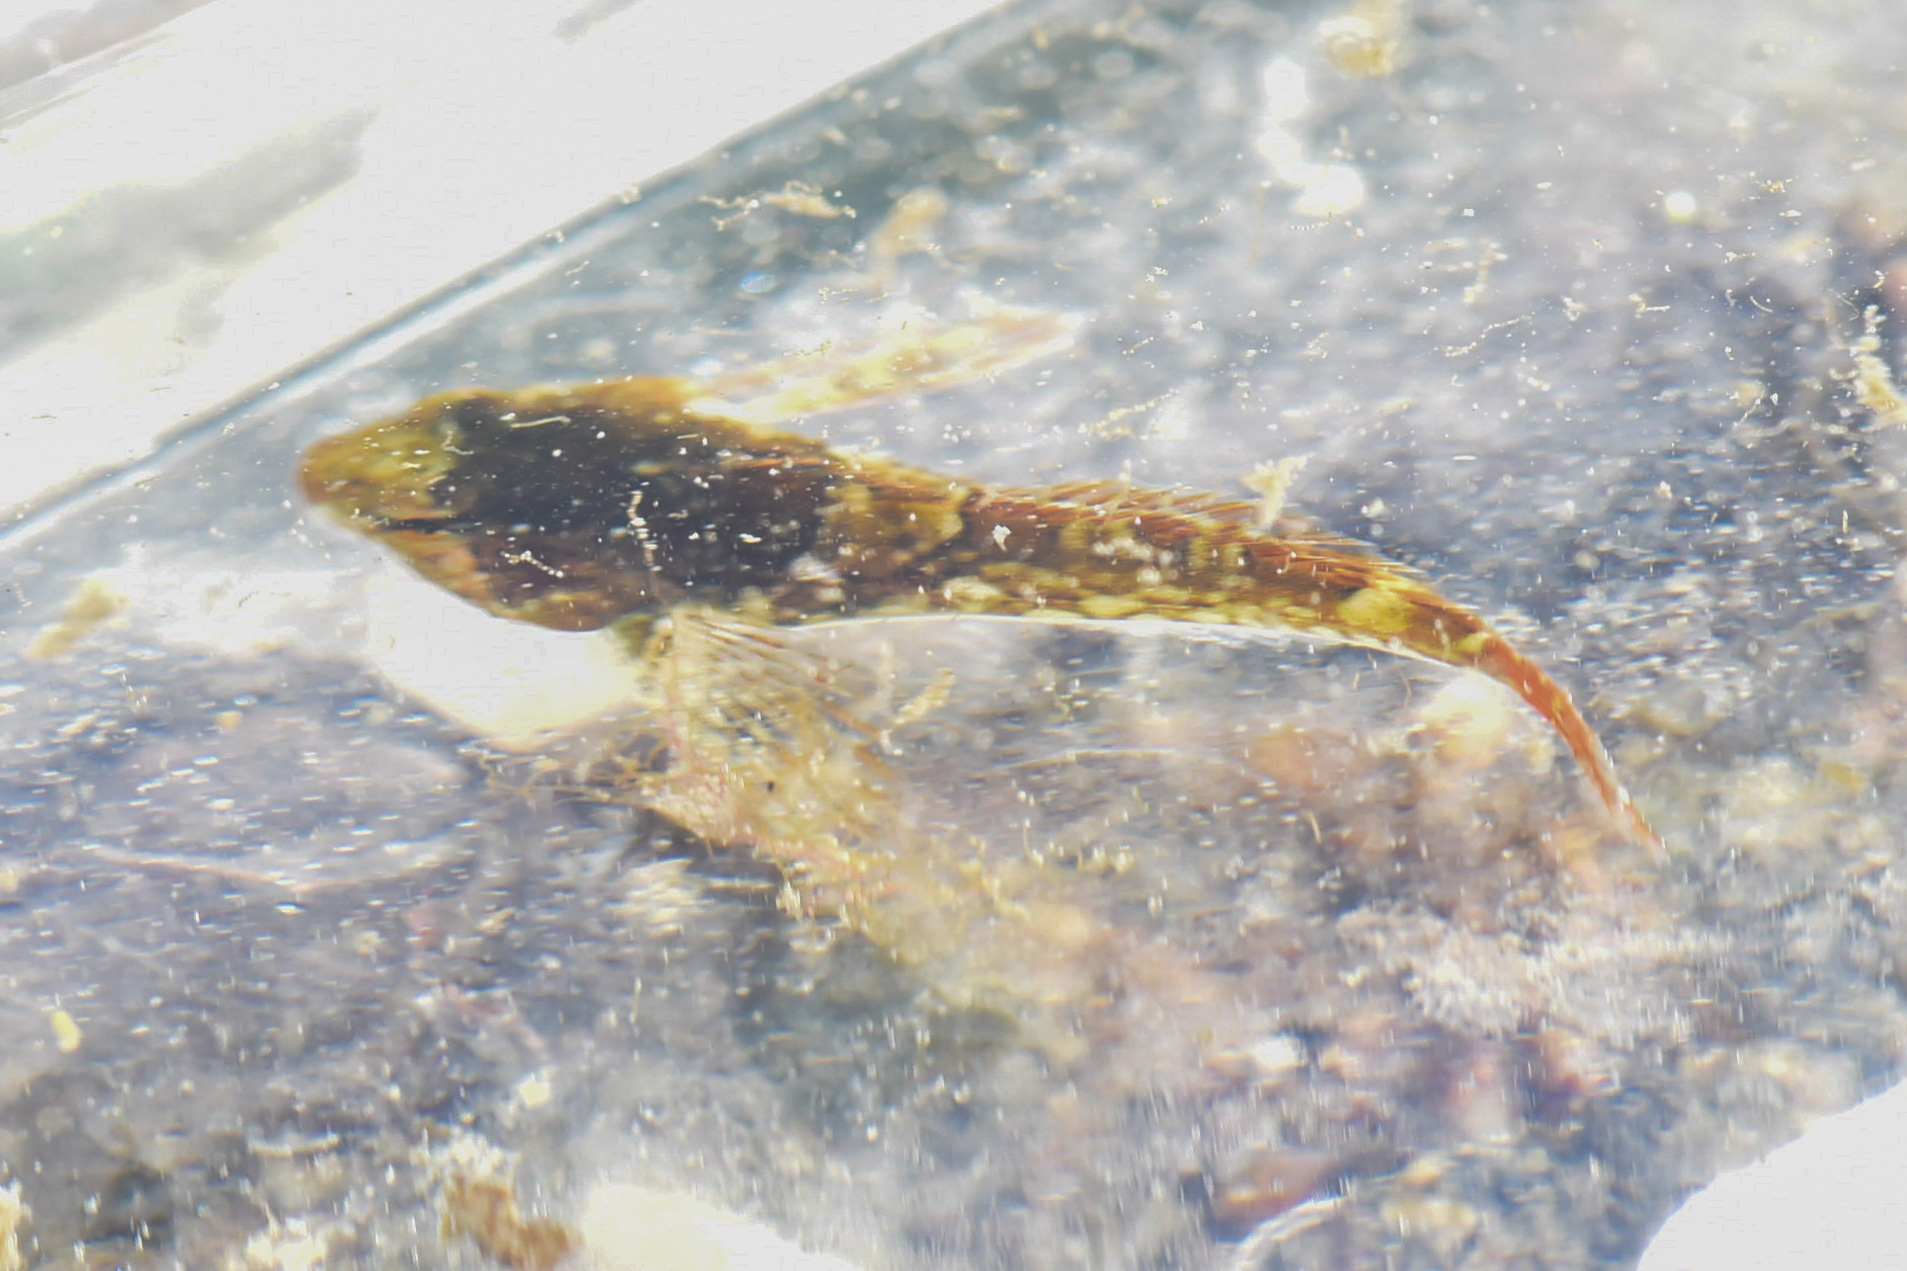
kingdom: Animalia
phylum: Chordata
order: Scorpaeniformes
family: Cottidae
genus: Oligocottus
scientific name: Oligocottus maculosus
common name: Tidepool sculpin
